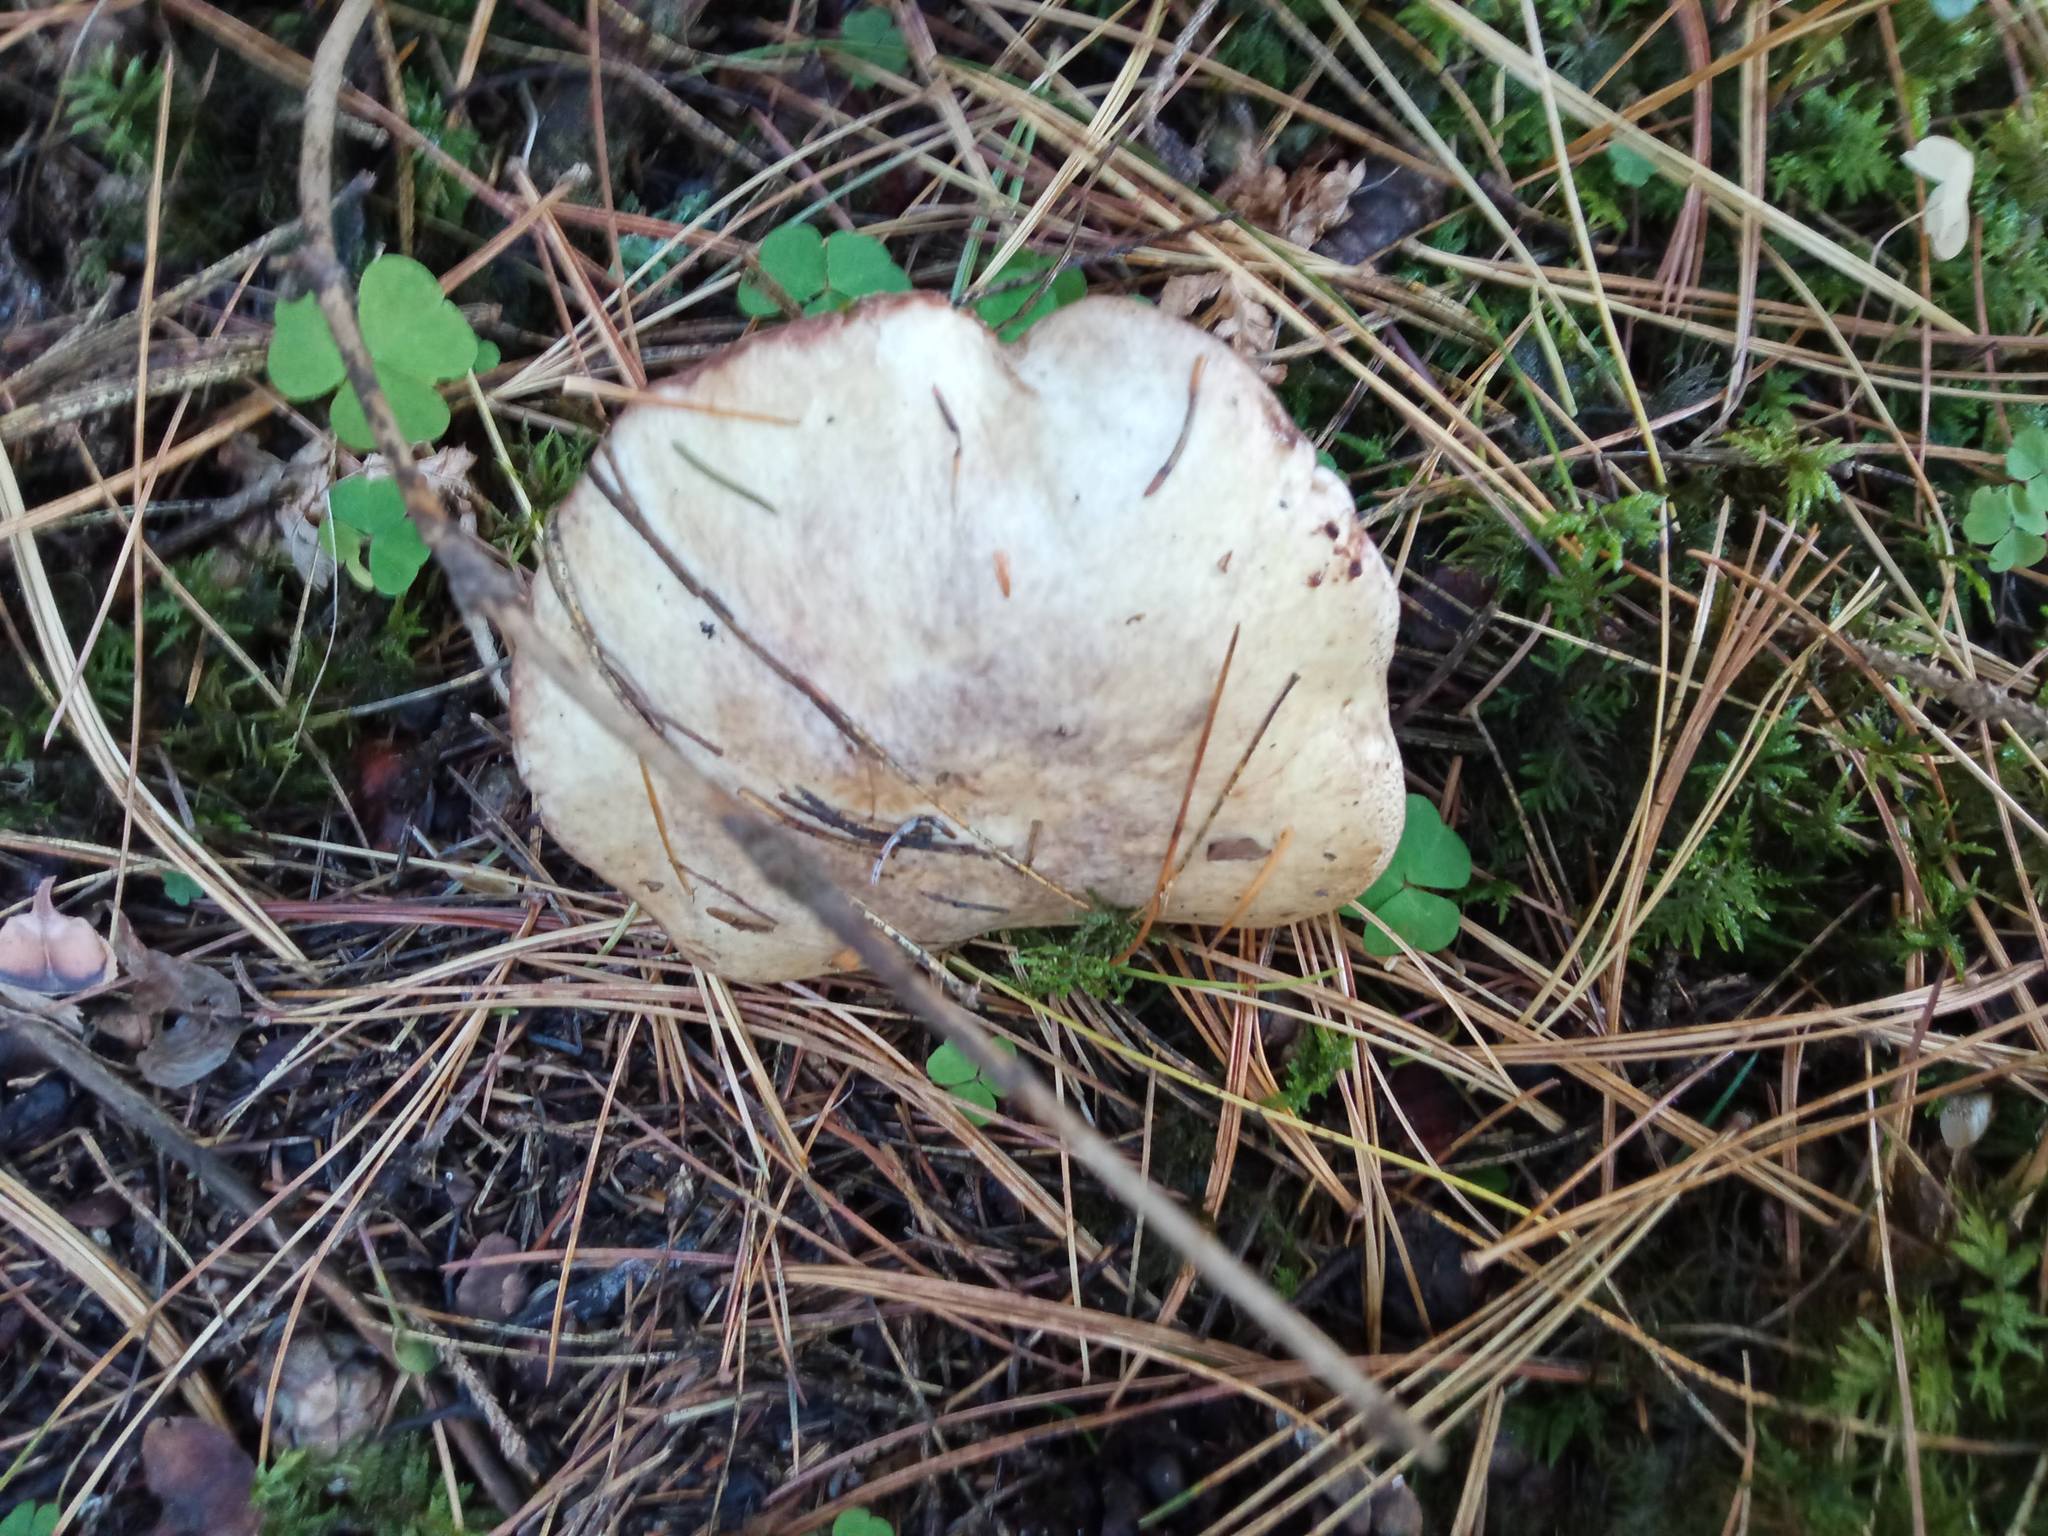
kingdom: Fungi
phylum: Basidiomycota
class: Agaricomycetes
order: Boletales
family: Suillaceae
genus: Suillus
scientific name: Suillus placidus
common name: Slippery white bolete
